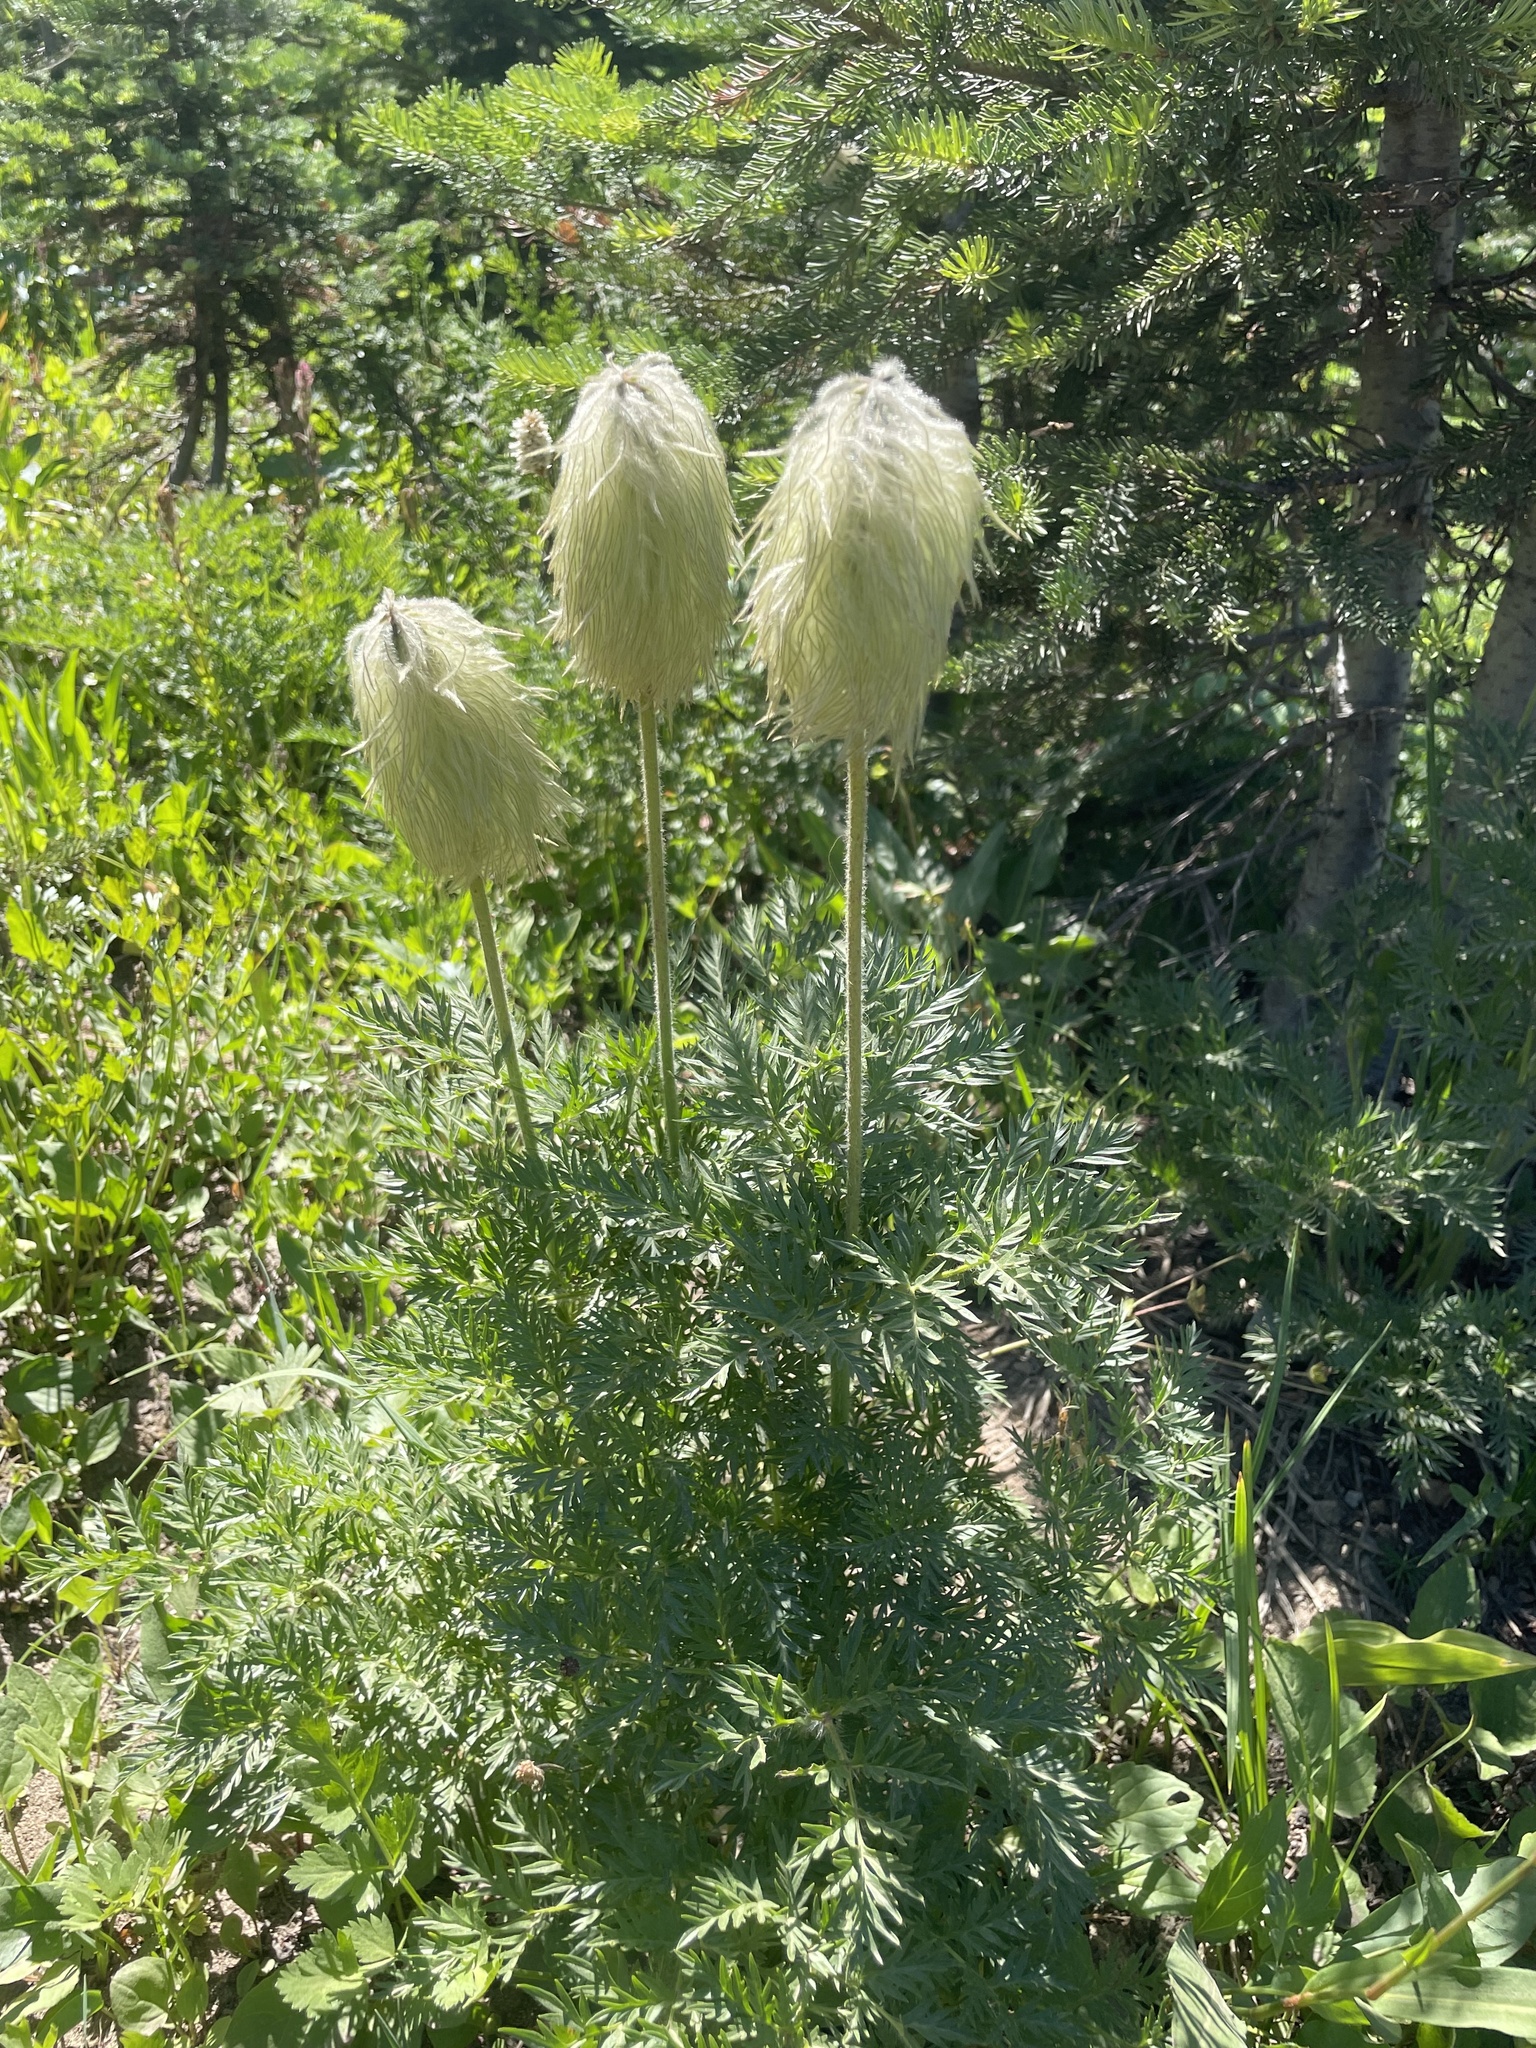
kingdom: Plantae
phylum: Tracheophyta
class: Magnoliopsida
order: Ranunculales
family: Ranunculaceae
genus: Pulsatilla
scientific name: Pulsatilla occidentalis
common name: Mountain pasqueflower
